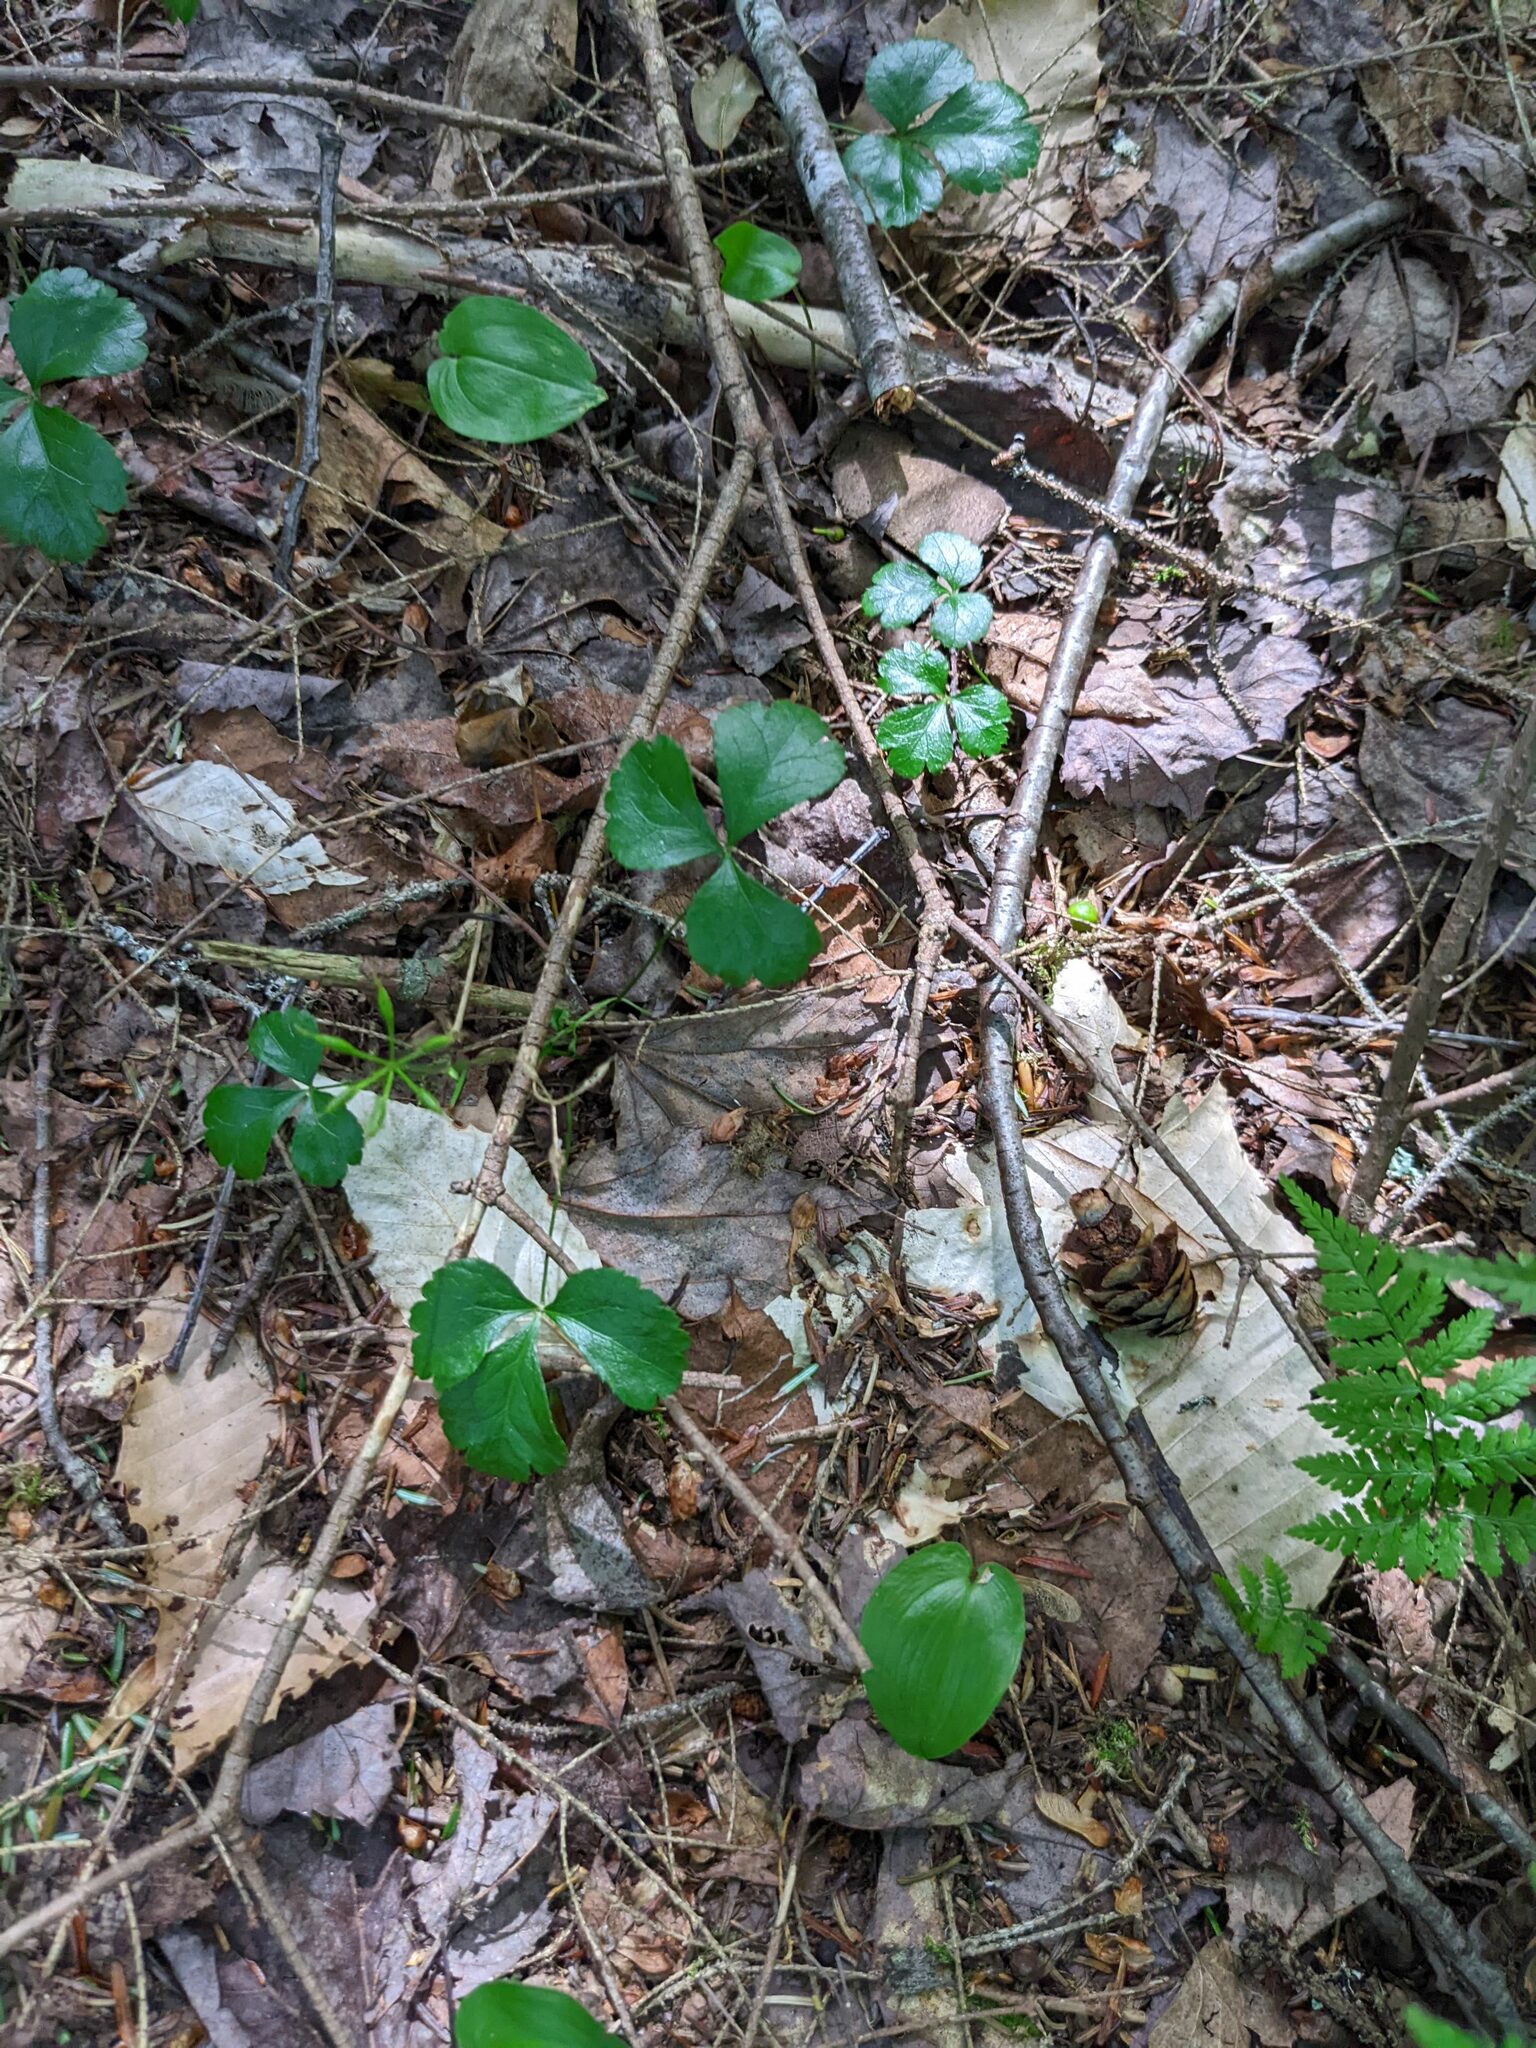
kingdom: Plantae
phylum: Tracheophyta
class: Magnoliopsida
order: Ranunculales
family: Ranunculaceae
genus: Coptis
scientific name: Coptis trifolia
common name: Canker-root
